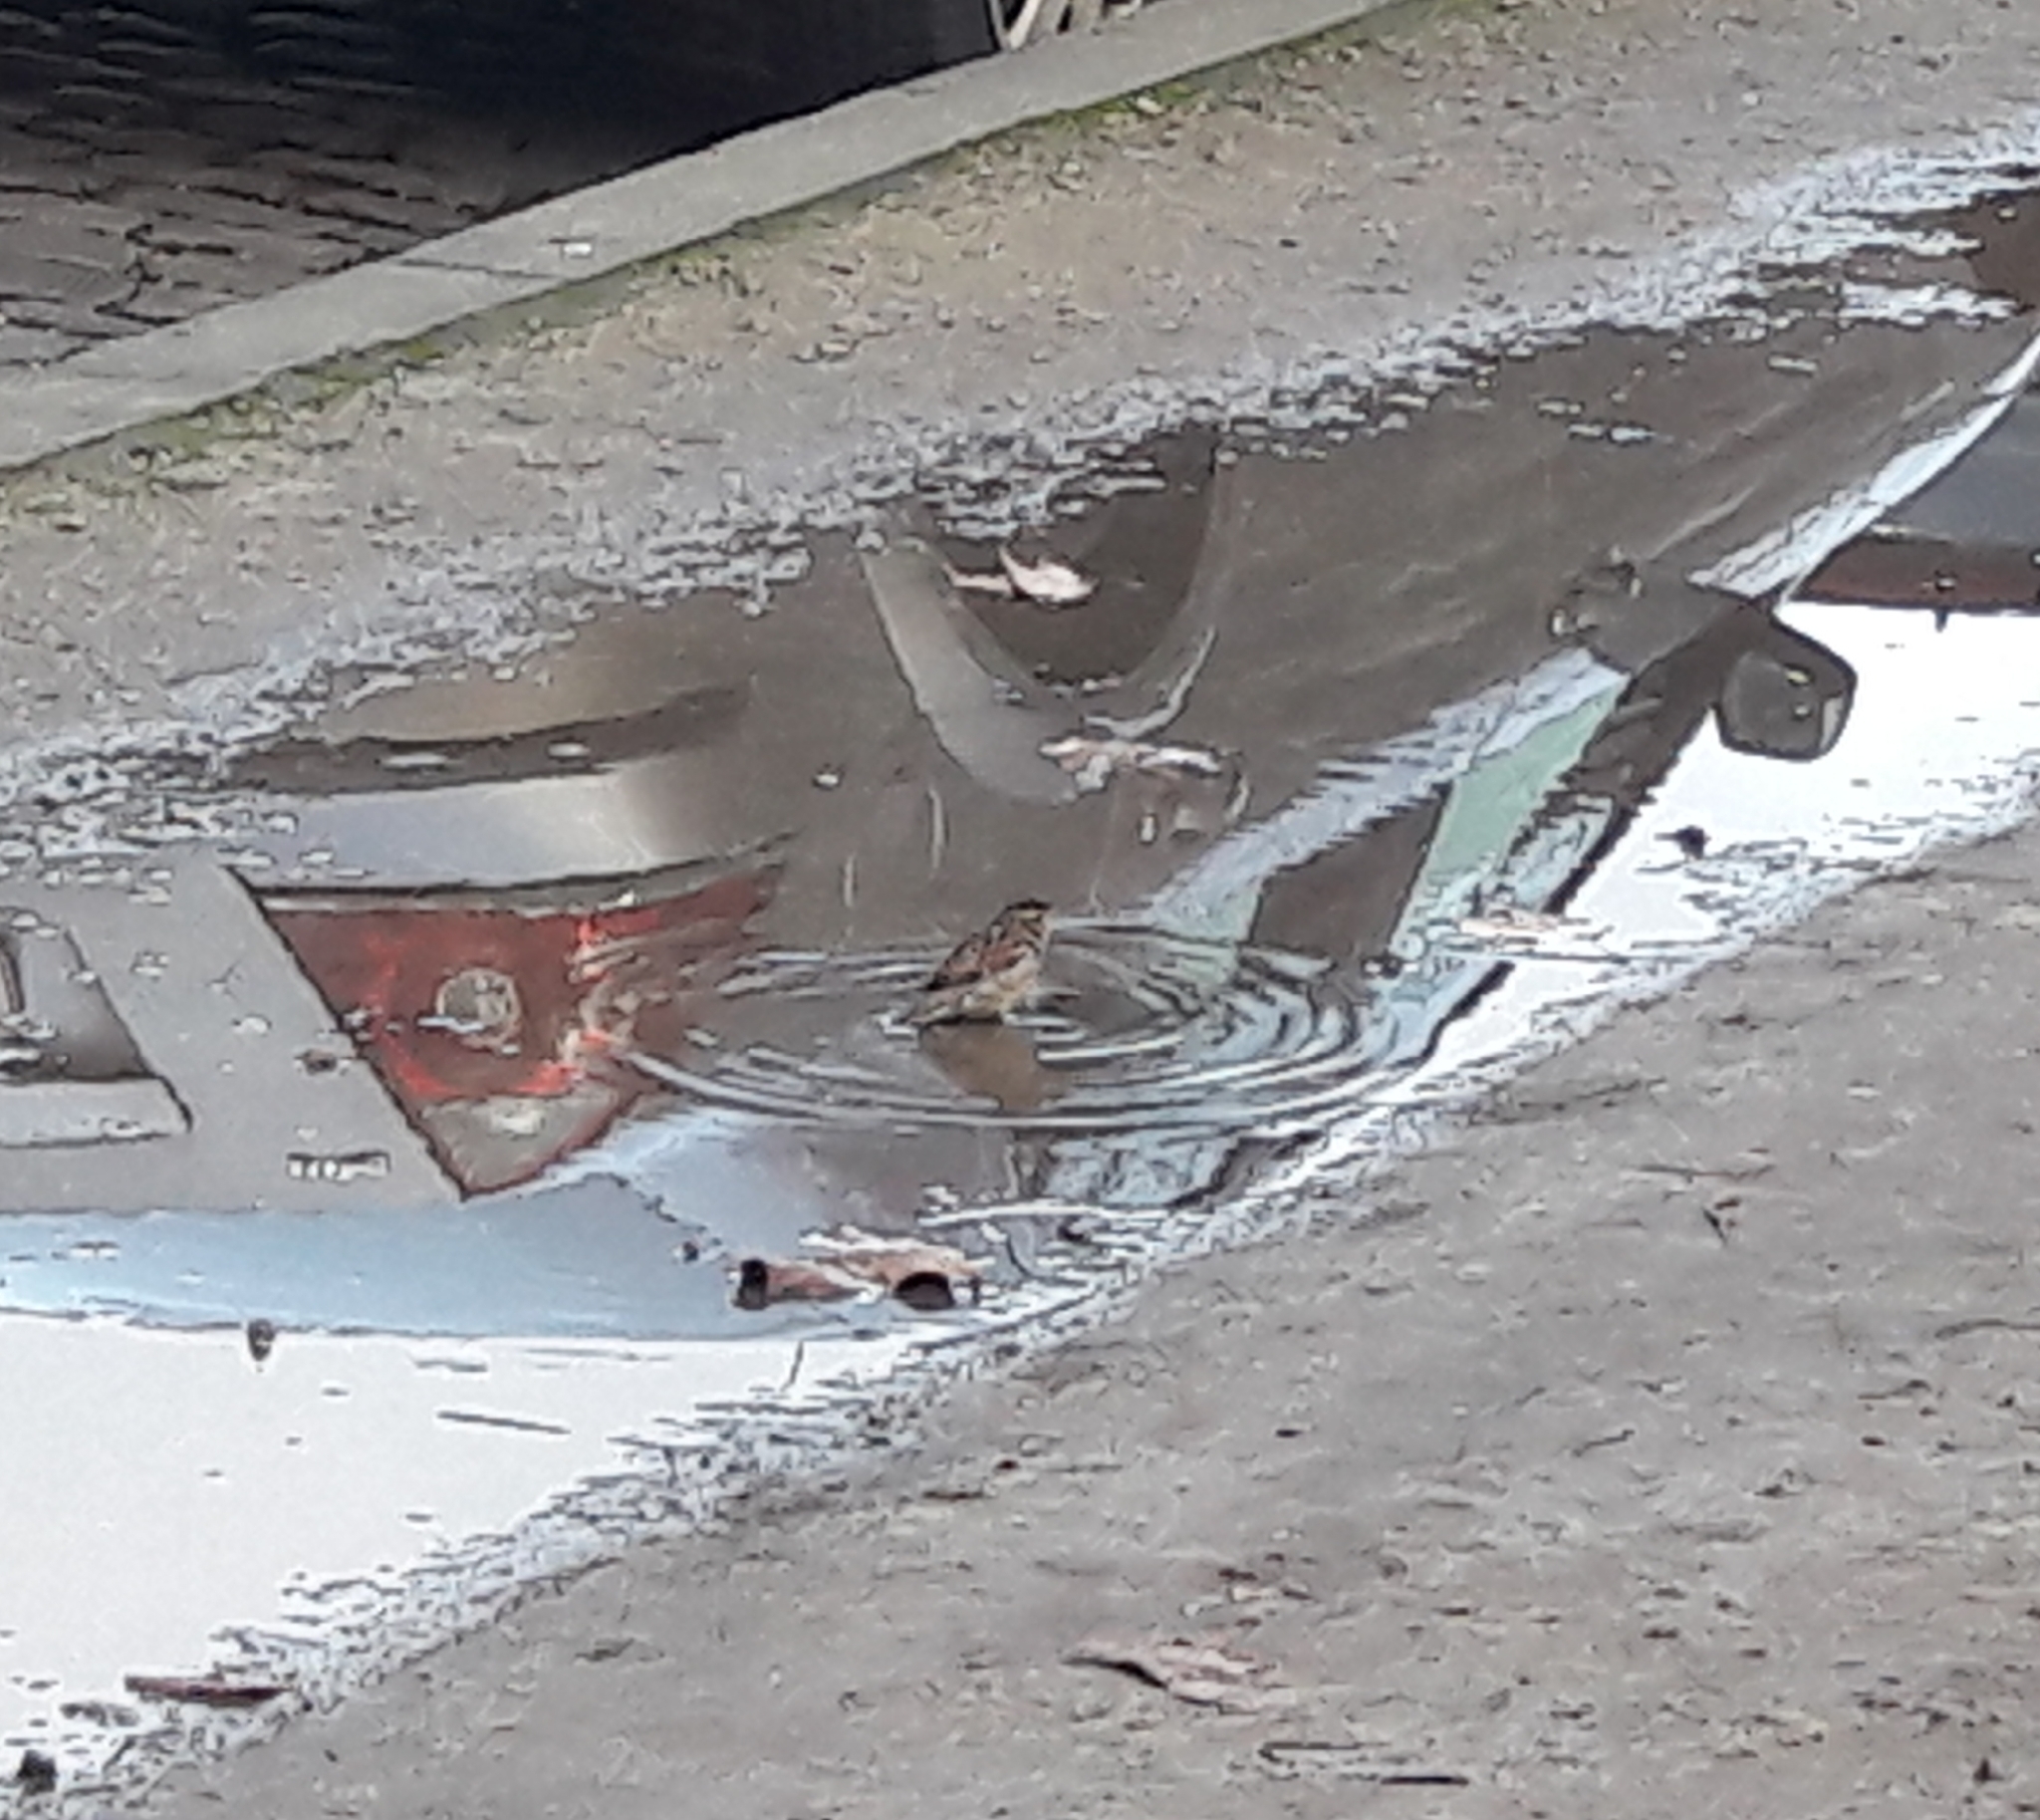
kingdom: Animalia
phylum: Chordata
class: Aves
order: Passeriformes
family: Passeridae
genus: Passer
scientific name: Passer domesticus
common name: House sparrow
